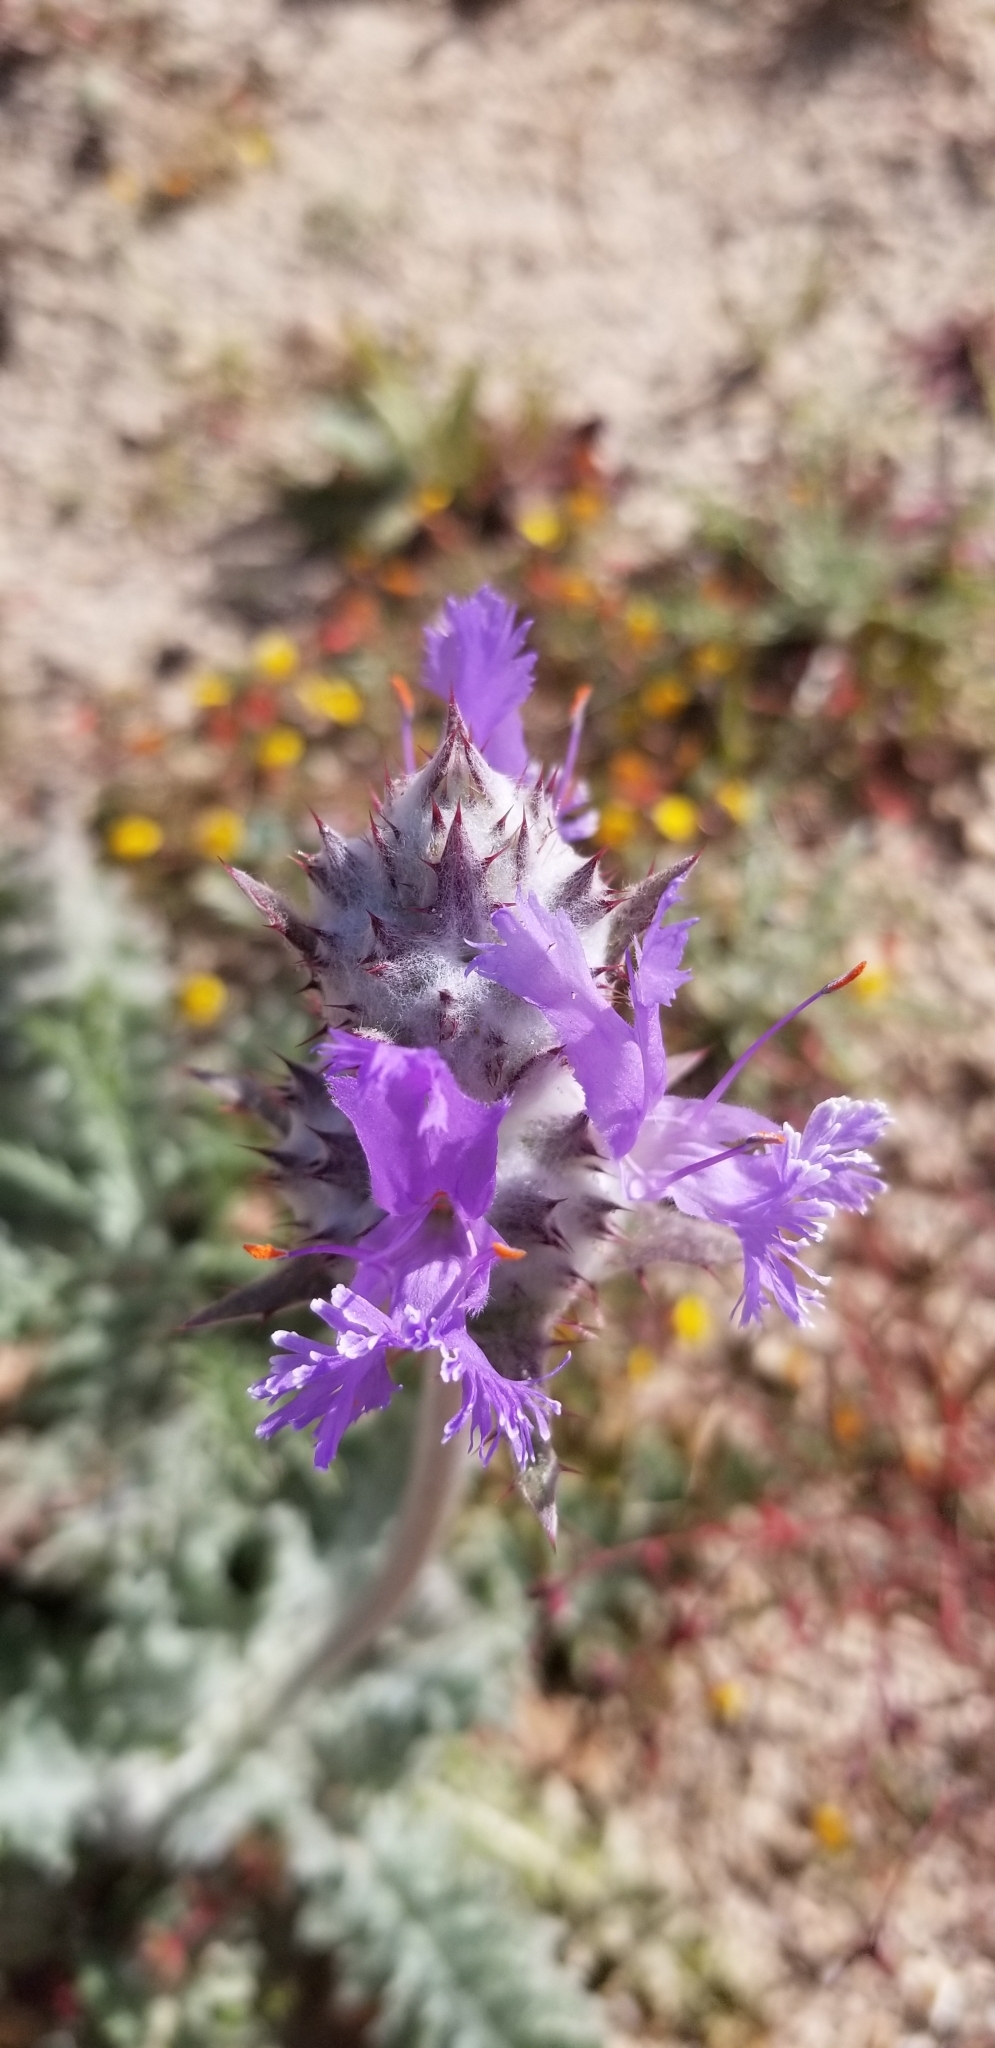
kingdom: Plantae
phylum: Tracheophyta
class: Magnoliopsida
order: Lamiales
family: Lamiaceae
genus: Salvia
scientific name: Salvia carduacea
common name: Thistle sage
